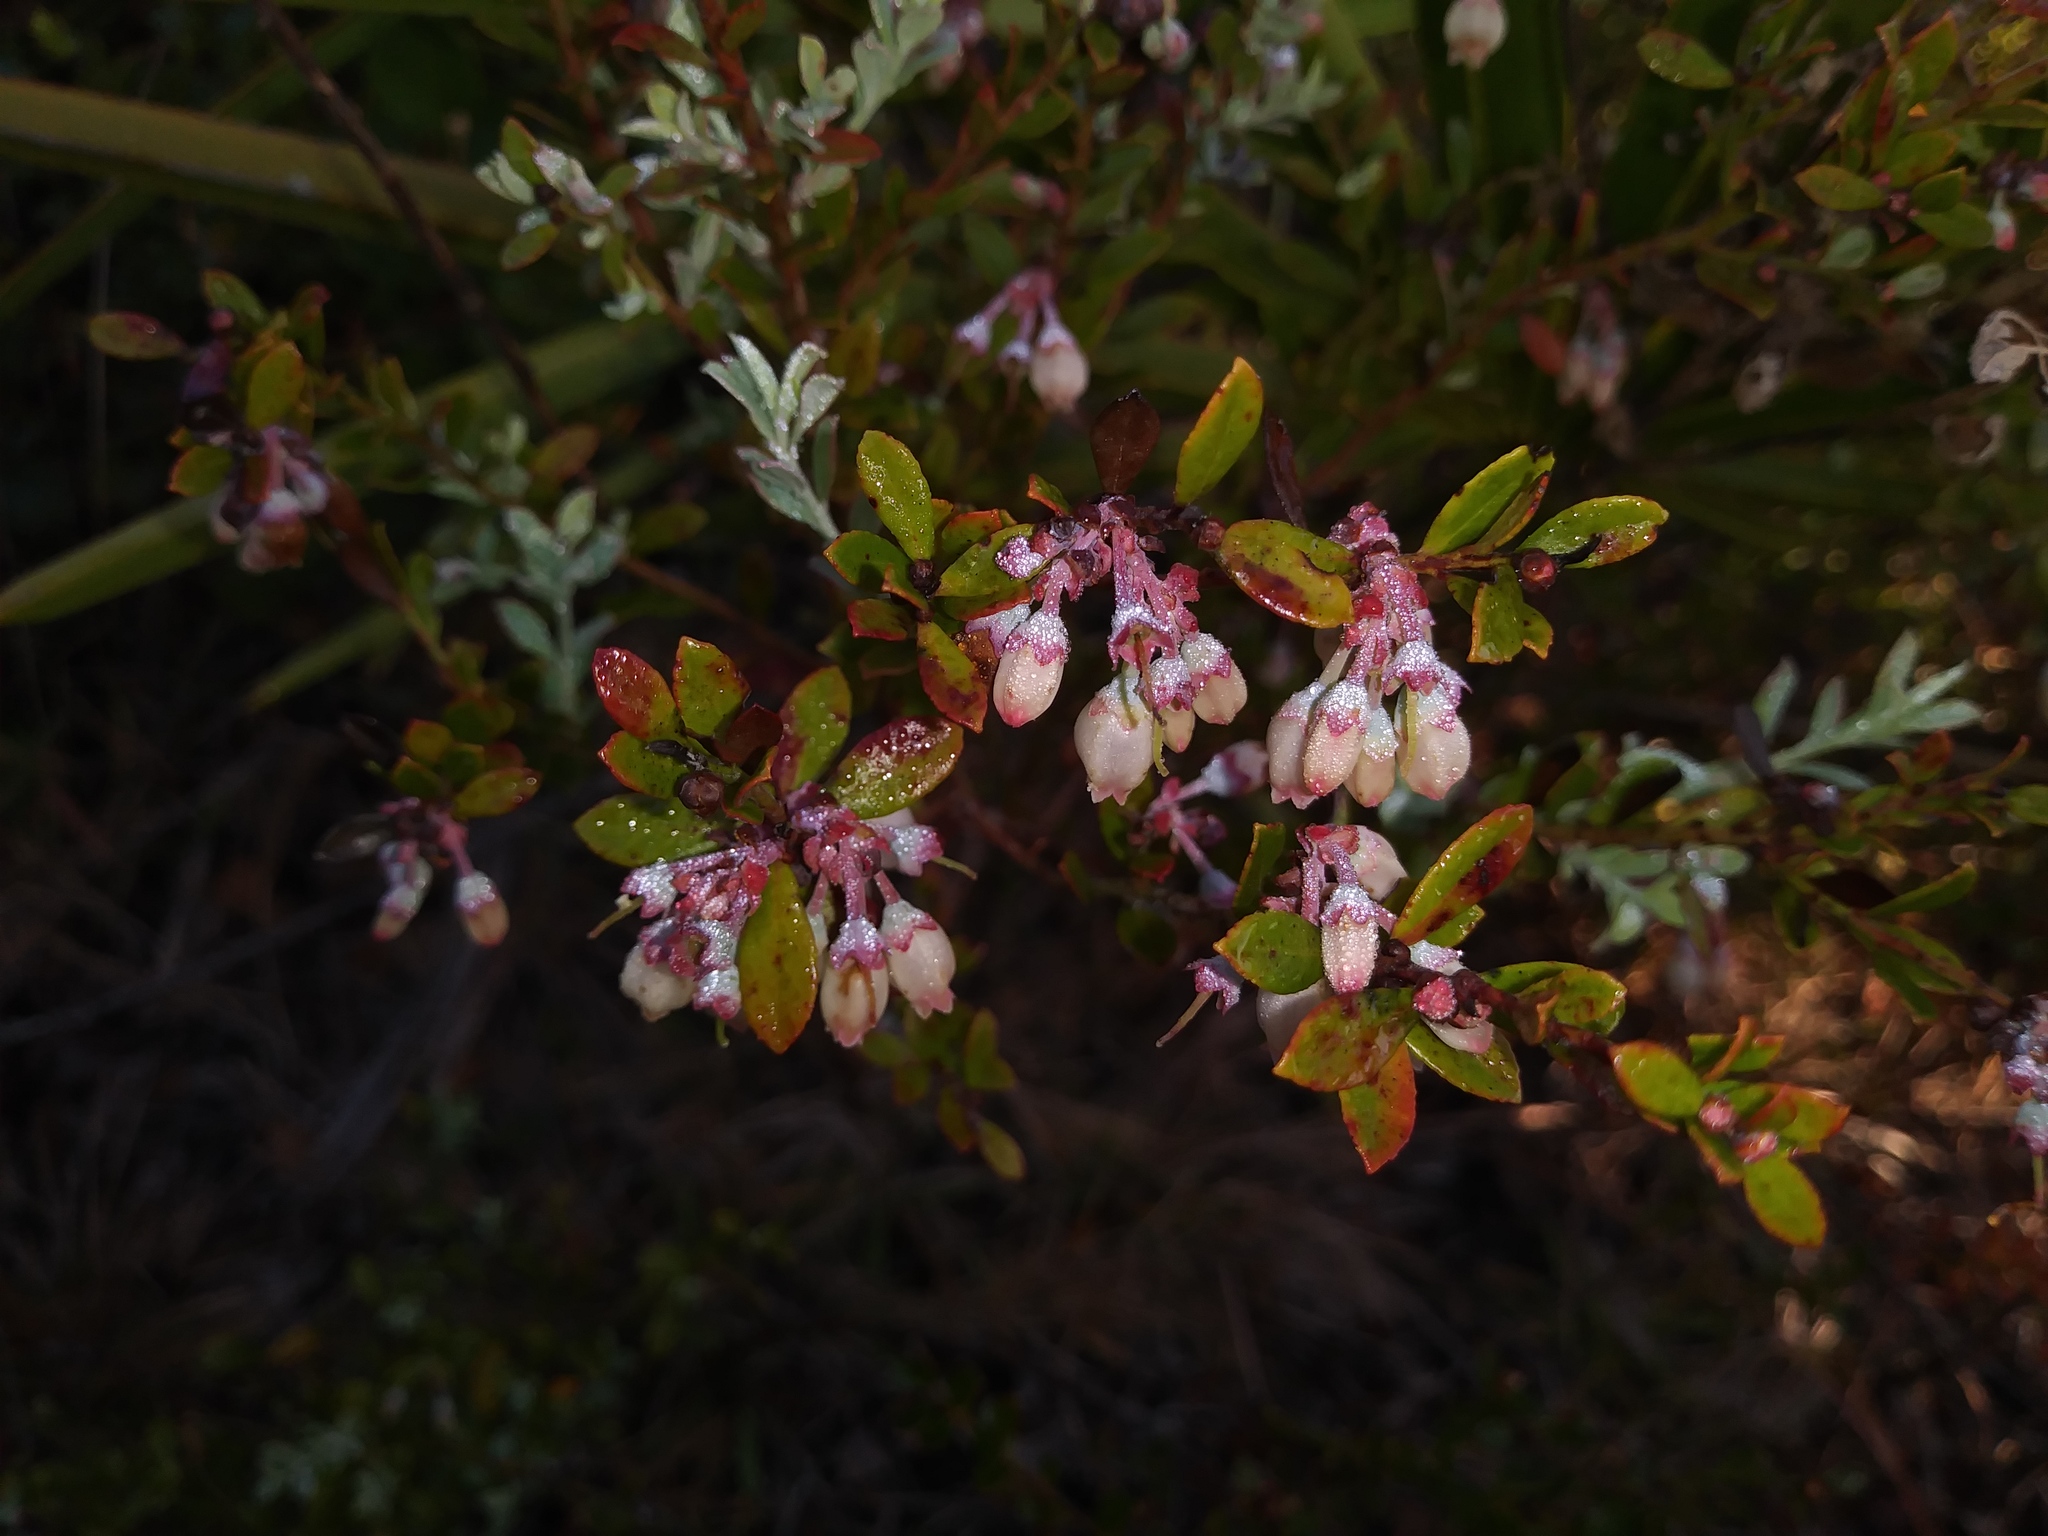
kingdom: Plantae
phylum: Tracheophyta
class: Magnoliopsida
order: Ericales
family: Ericaceae
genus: Vaccinium
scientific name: Vaccinium darrowii
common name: Darrow's blueberry
